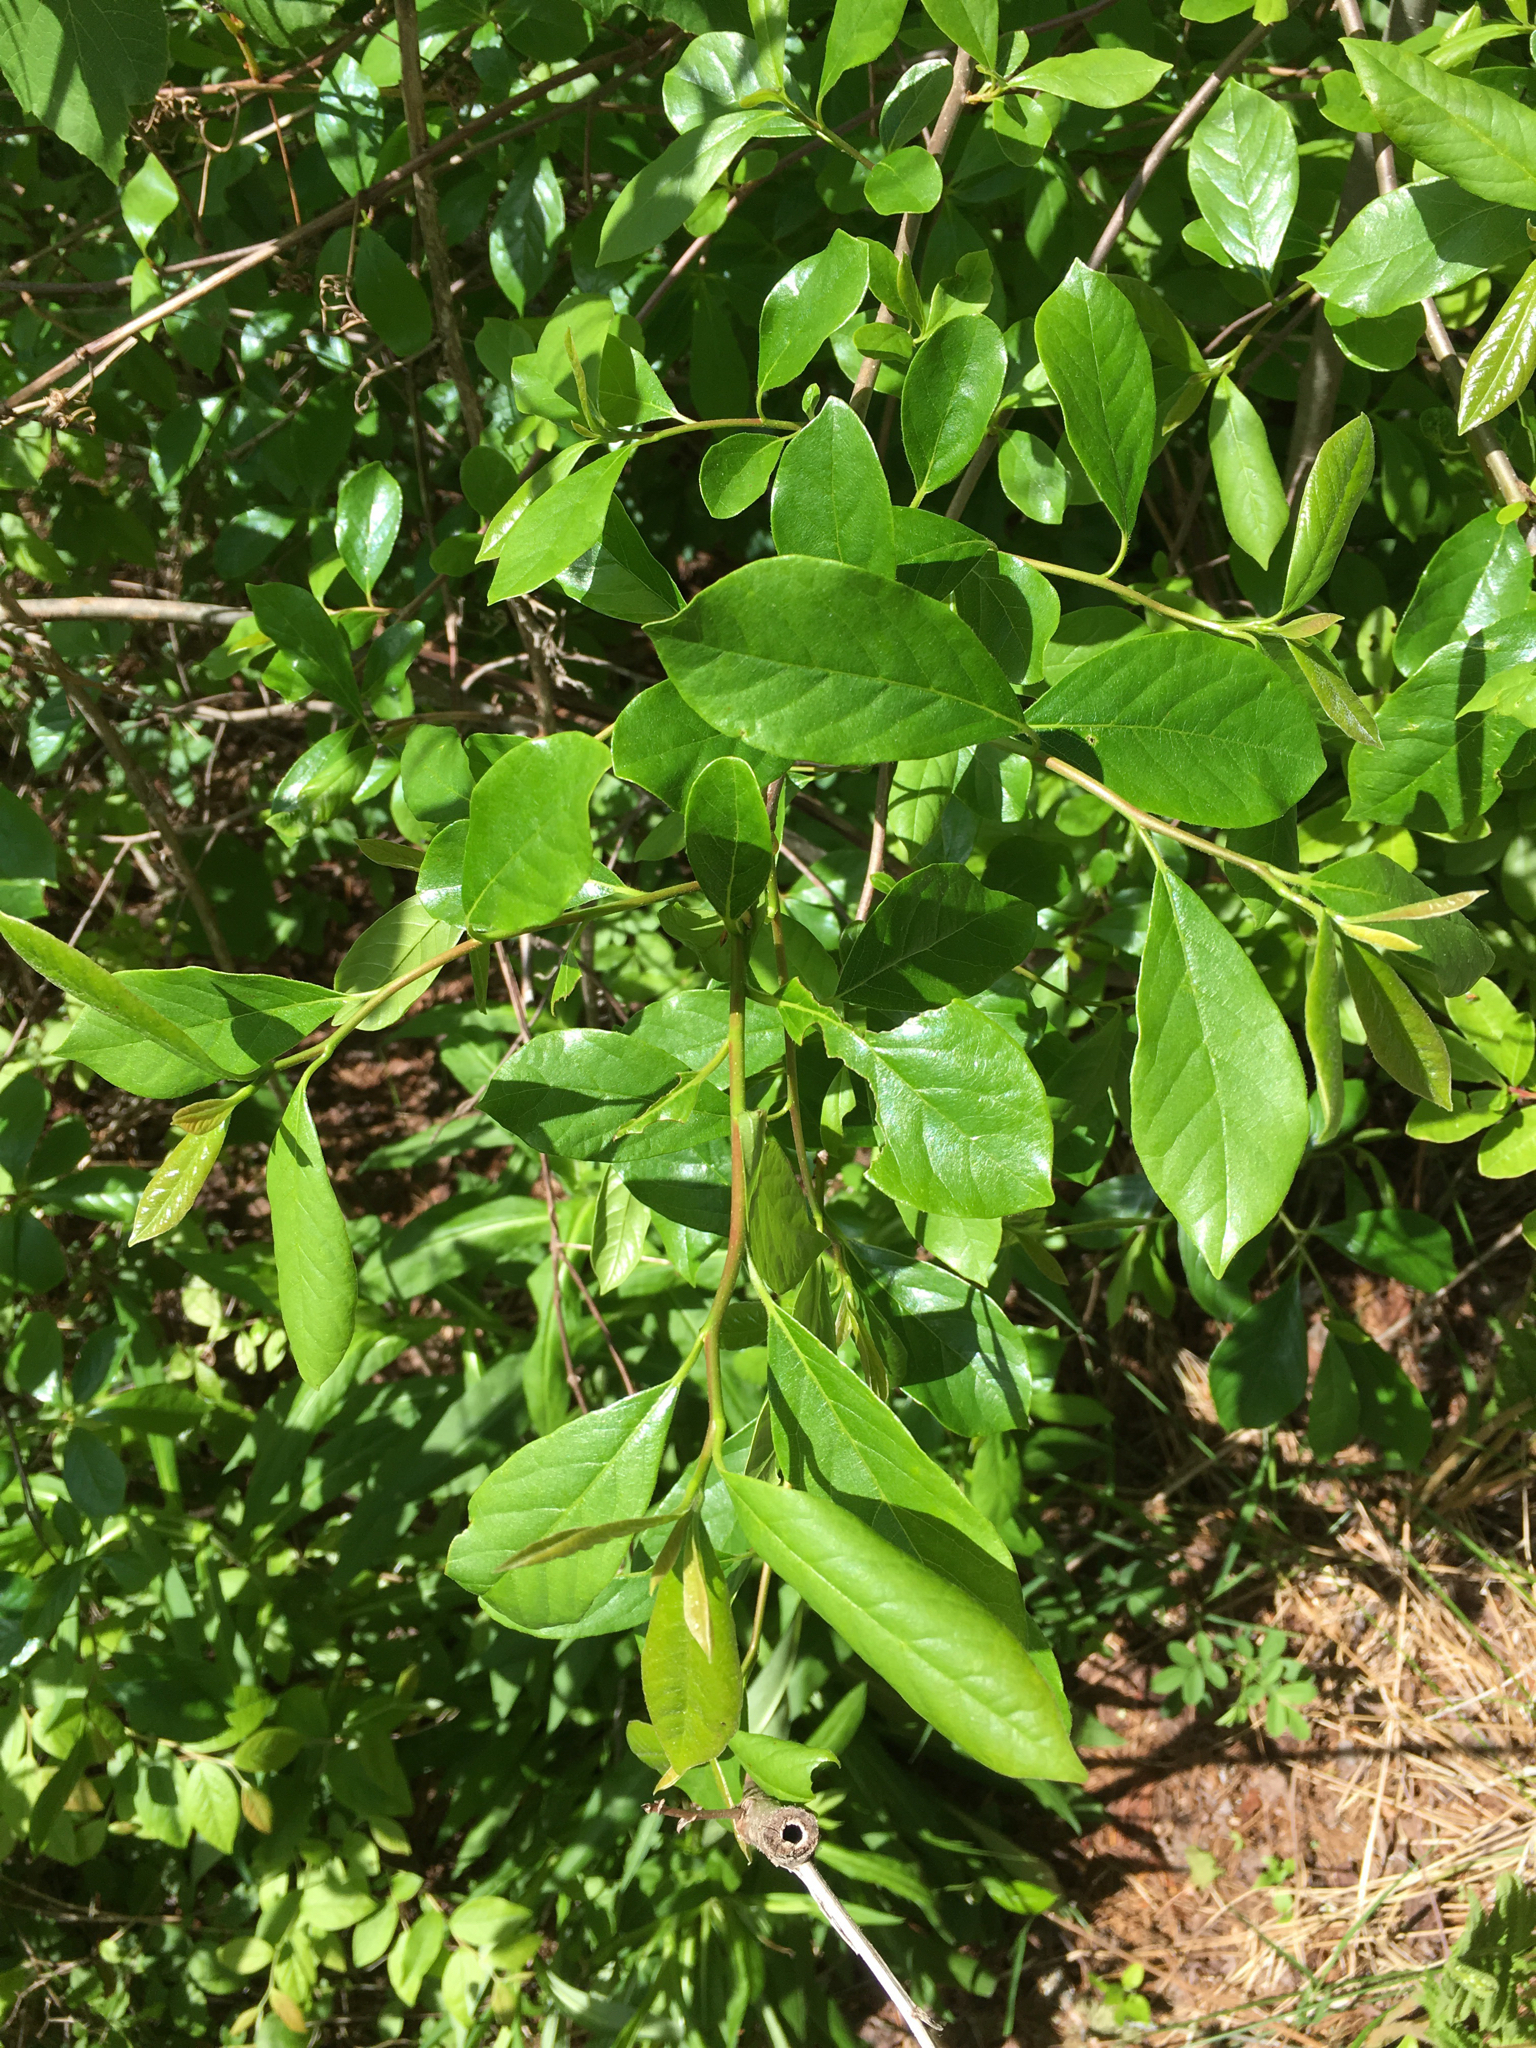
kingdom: Plantae
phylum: Tracheophyta
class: Magnoliopsida
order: Cornales
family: Nyssaceae
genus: Nyssa
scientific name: Nyssa sylvatica
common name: Black tupelo
